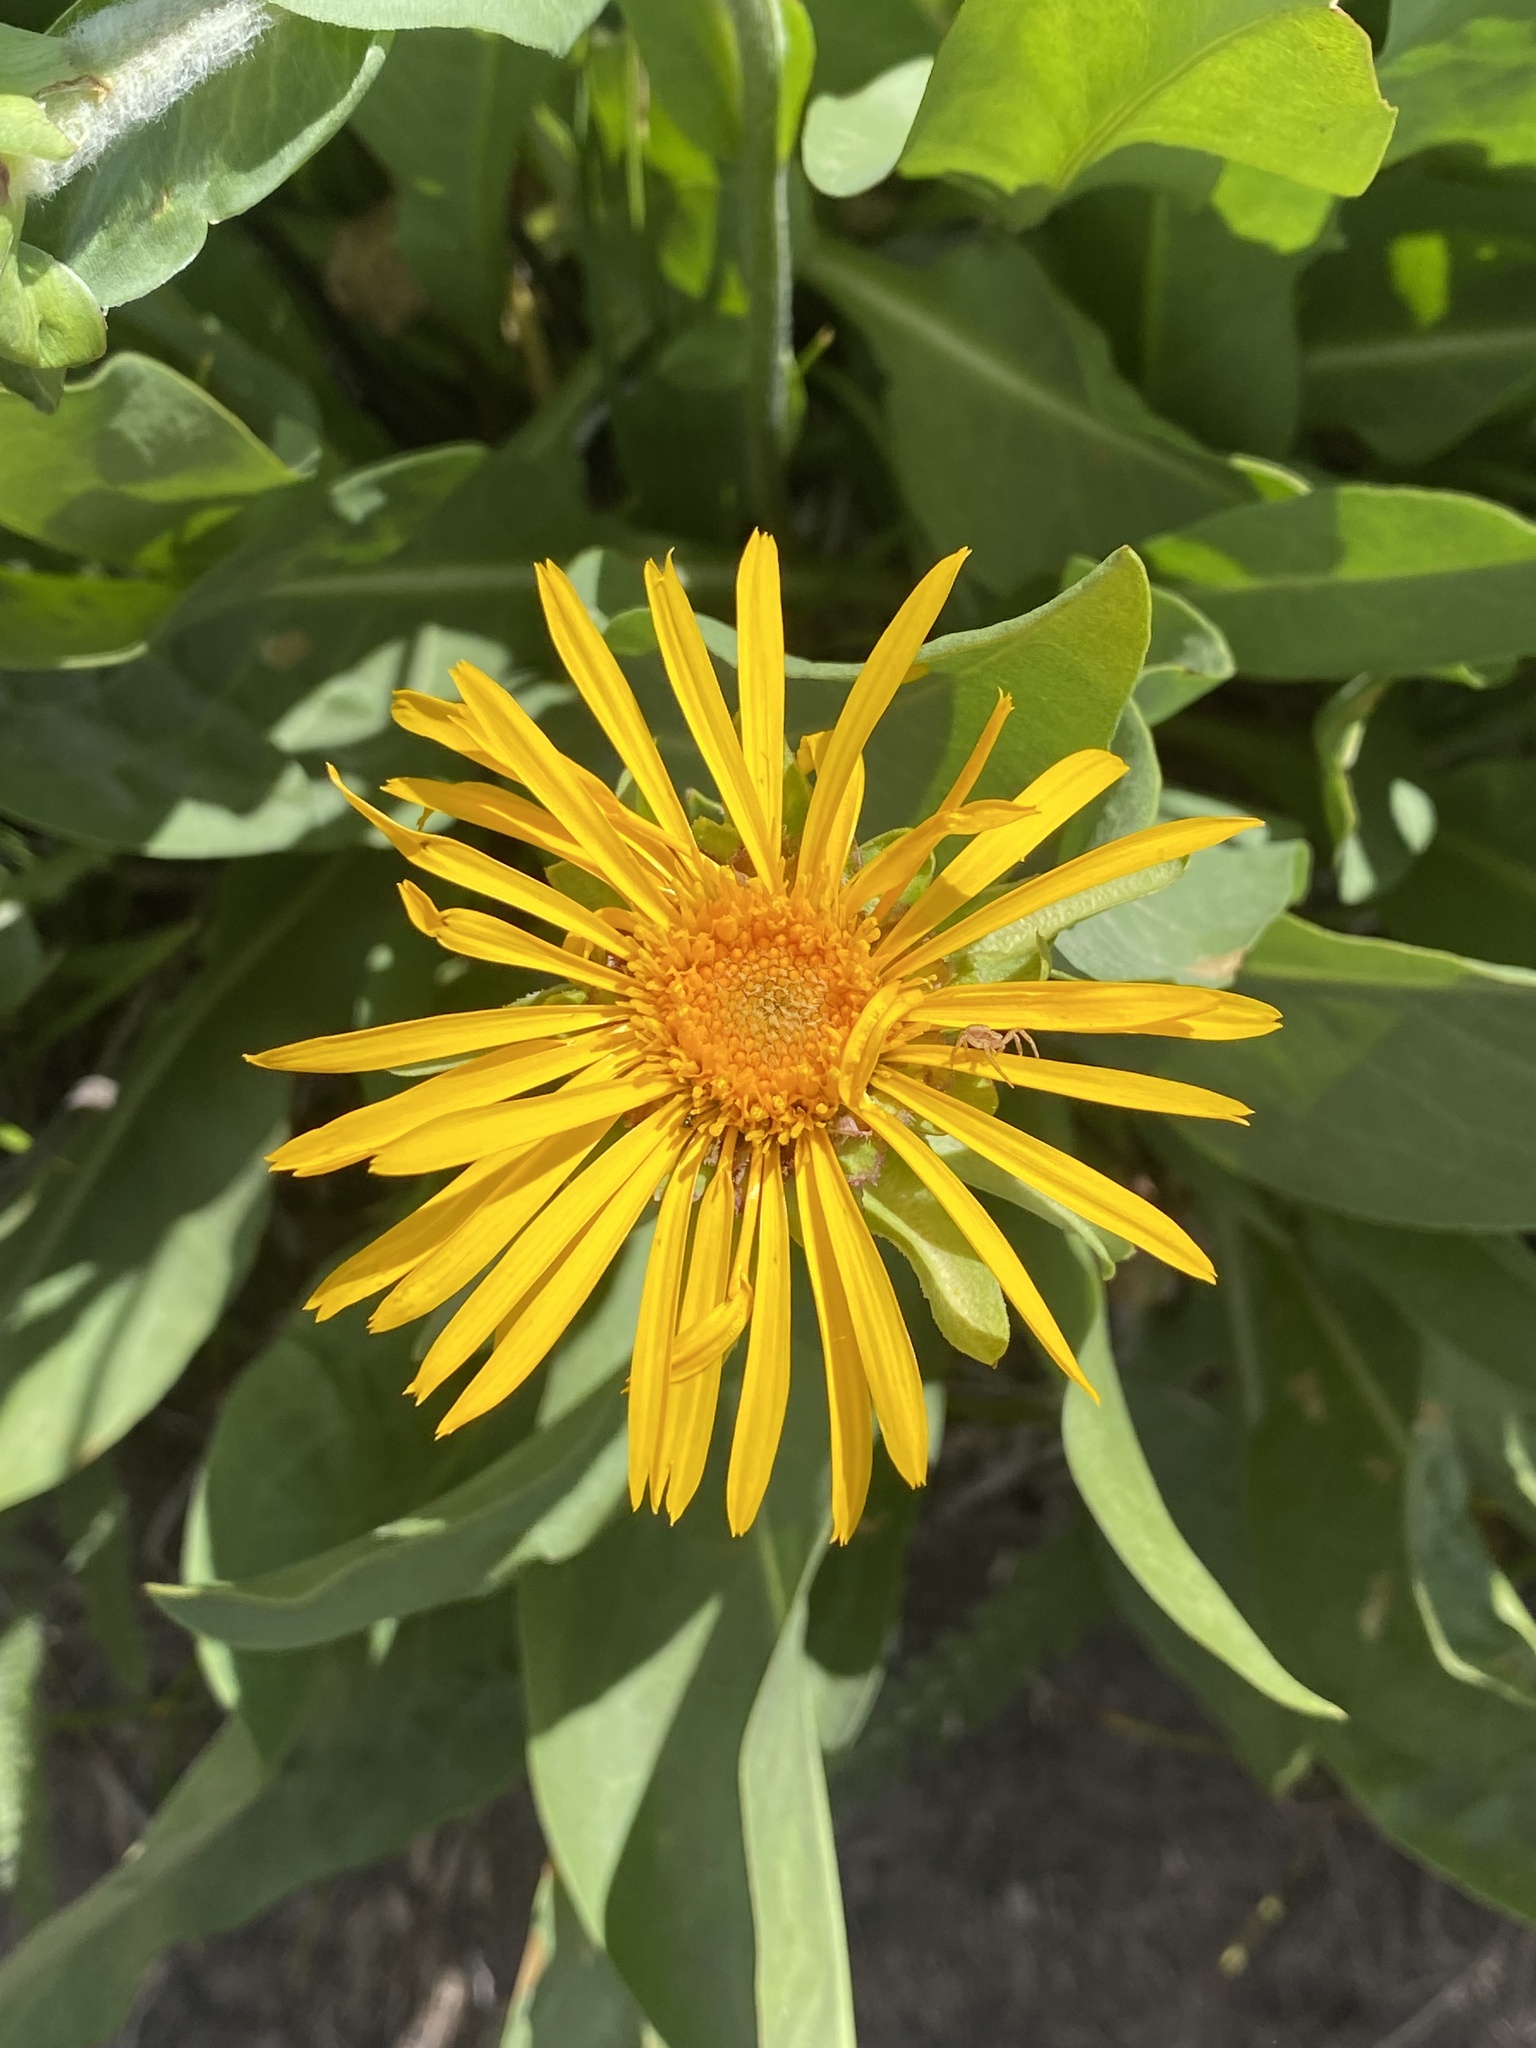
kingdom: Plantae
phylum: Tracheophyta
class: Magnoliopsida
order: Asterales
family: Asteraceae
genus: Pyrrocoma
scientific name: Pyrrocoma crocea
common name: Curly-head goldenweed
